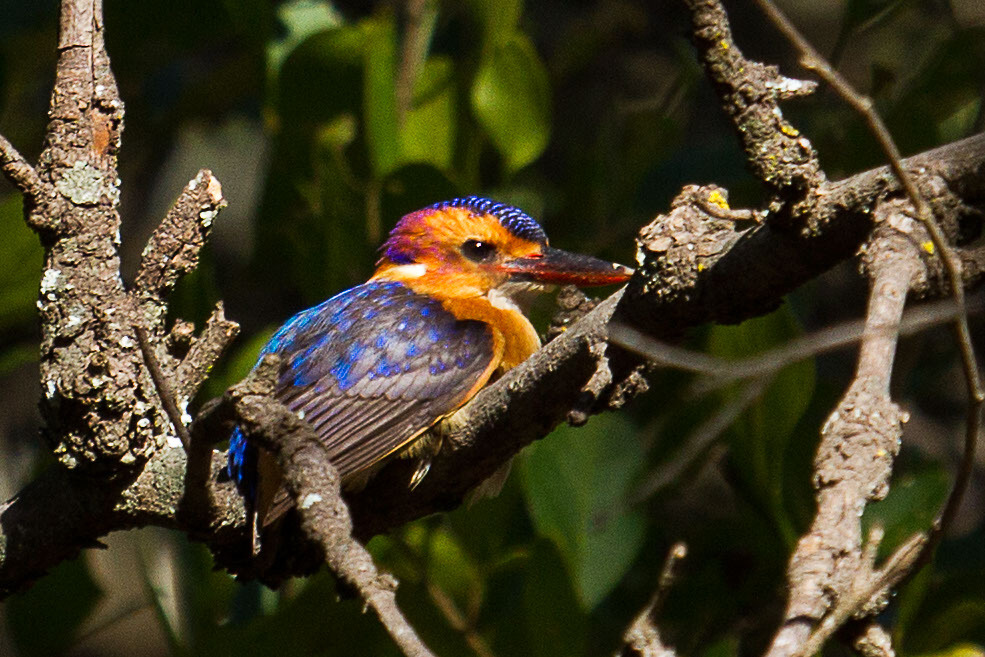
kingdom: Animalia
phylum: Chordata
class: Aves
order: Coraciiformes
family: Alcedinidae
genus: Ispidina
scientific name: Ispidina picta
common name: African pygmy-kingfisher
